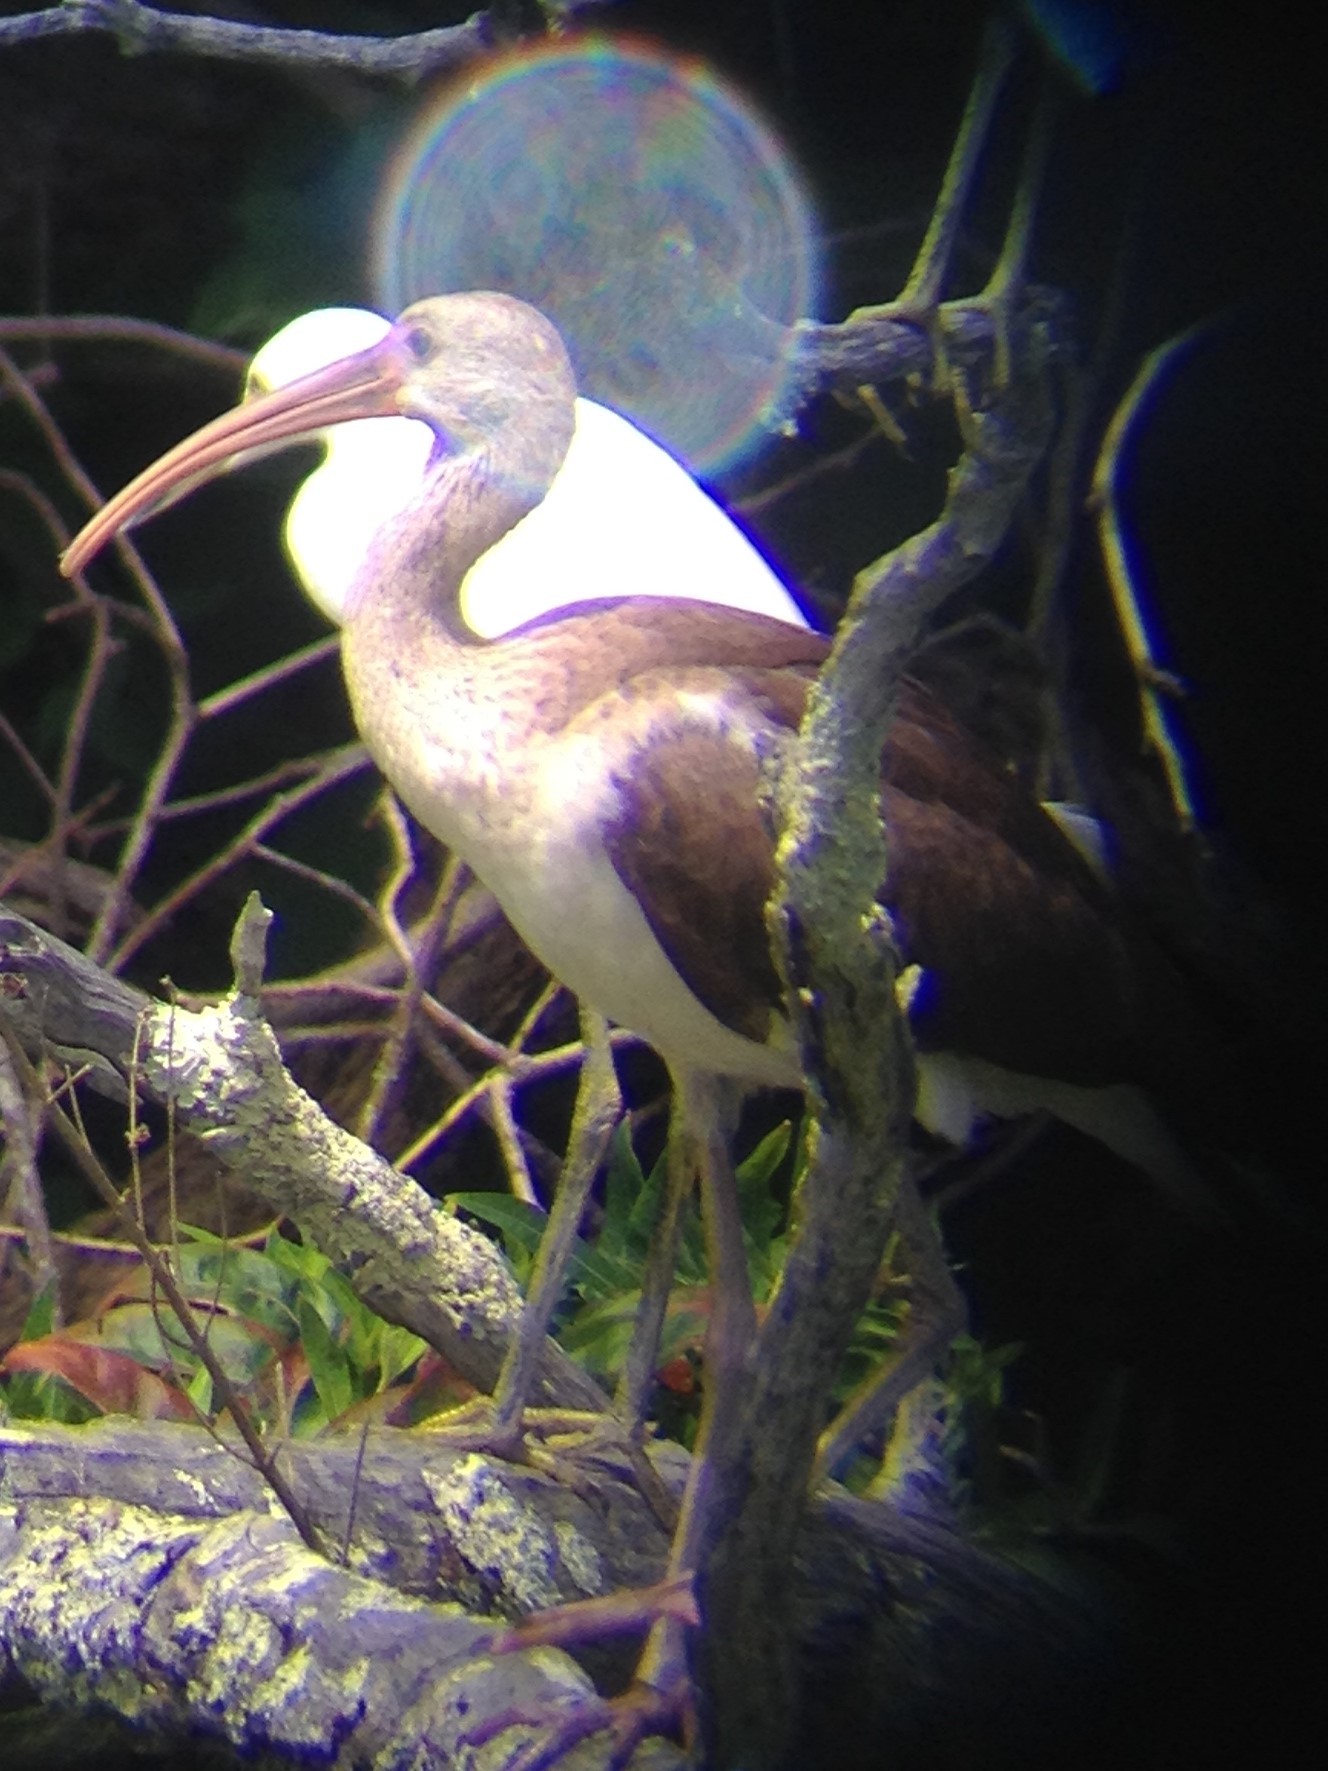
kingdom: Animalia
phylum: Chordata
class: Aves
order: Pelecaniformes
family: Threskiornithidae
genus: Eudocimus
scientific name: Eudocimus albus
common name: White ibis
